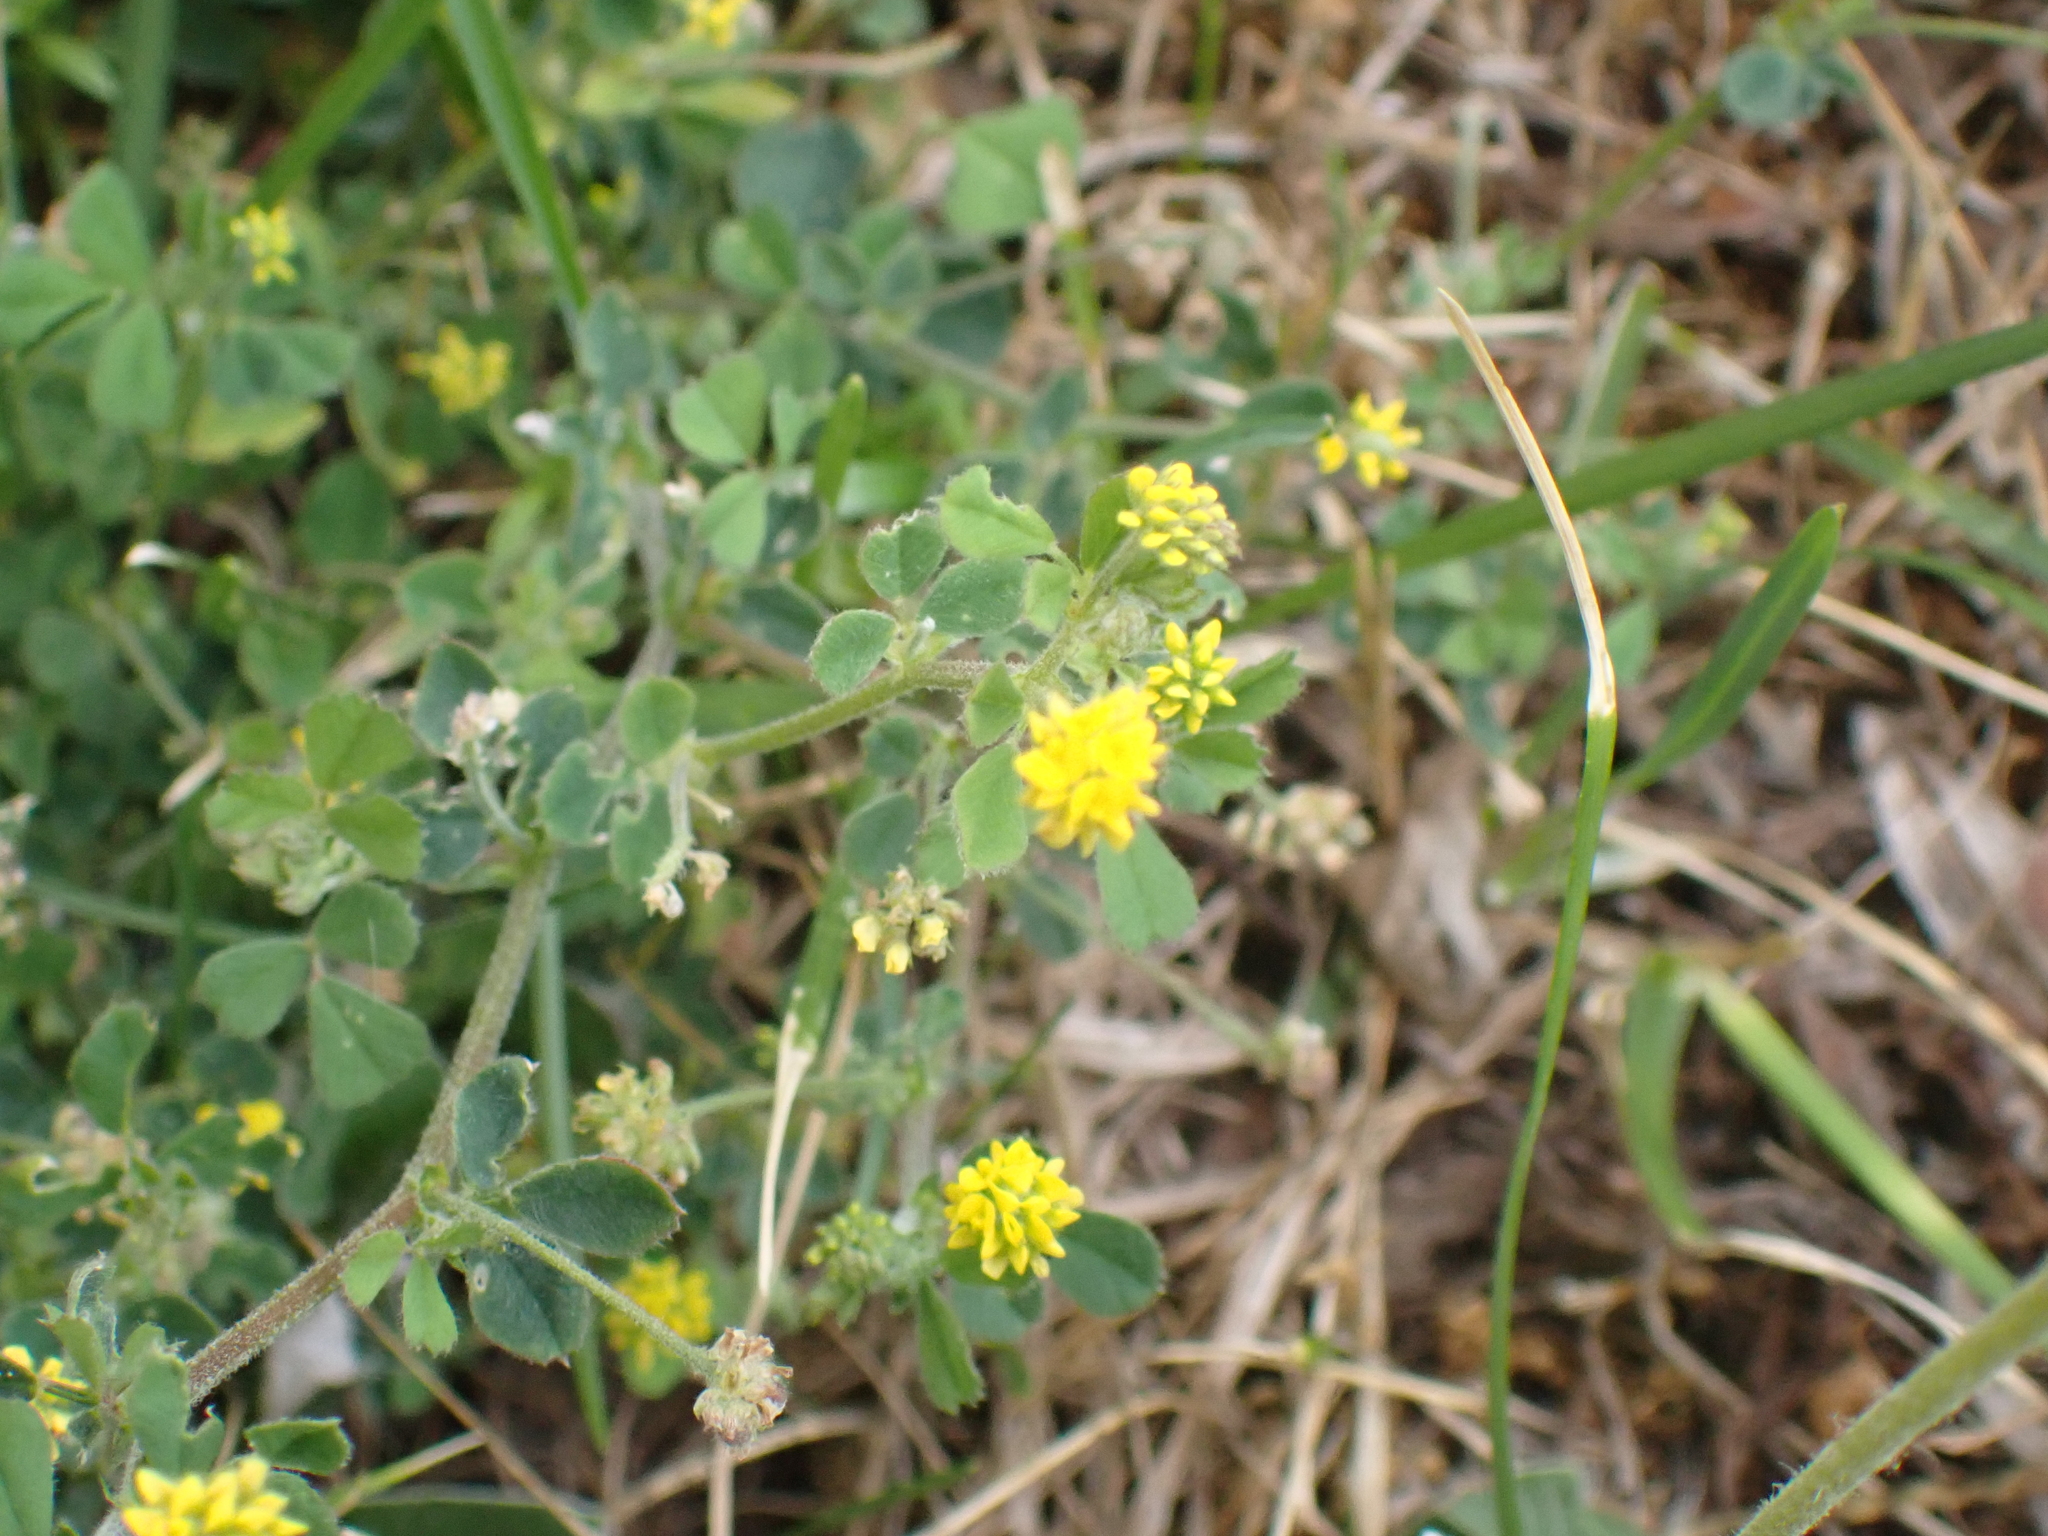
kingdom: Plantae
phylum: Tracheophyta
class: Magnoliopsida
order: Fabales
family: Fabaceae
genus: Medicago
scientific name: Medicago lupulina
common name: Black medick
